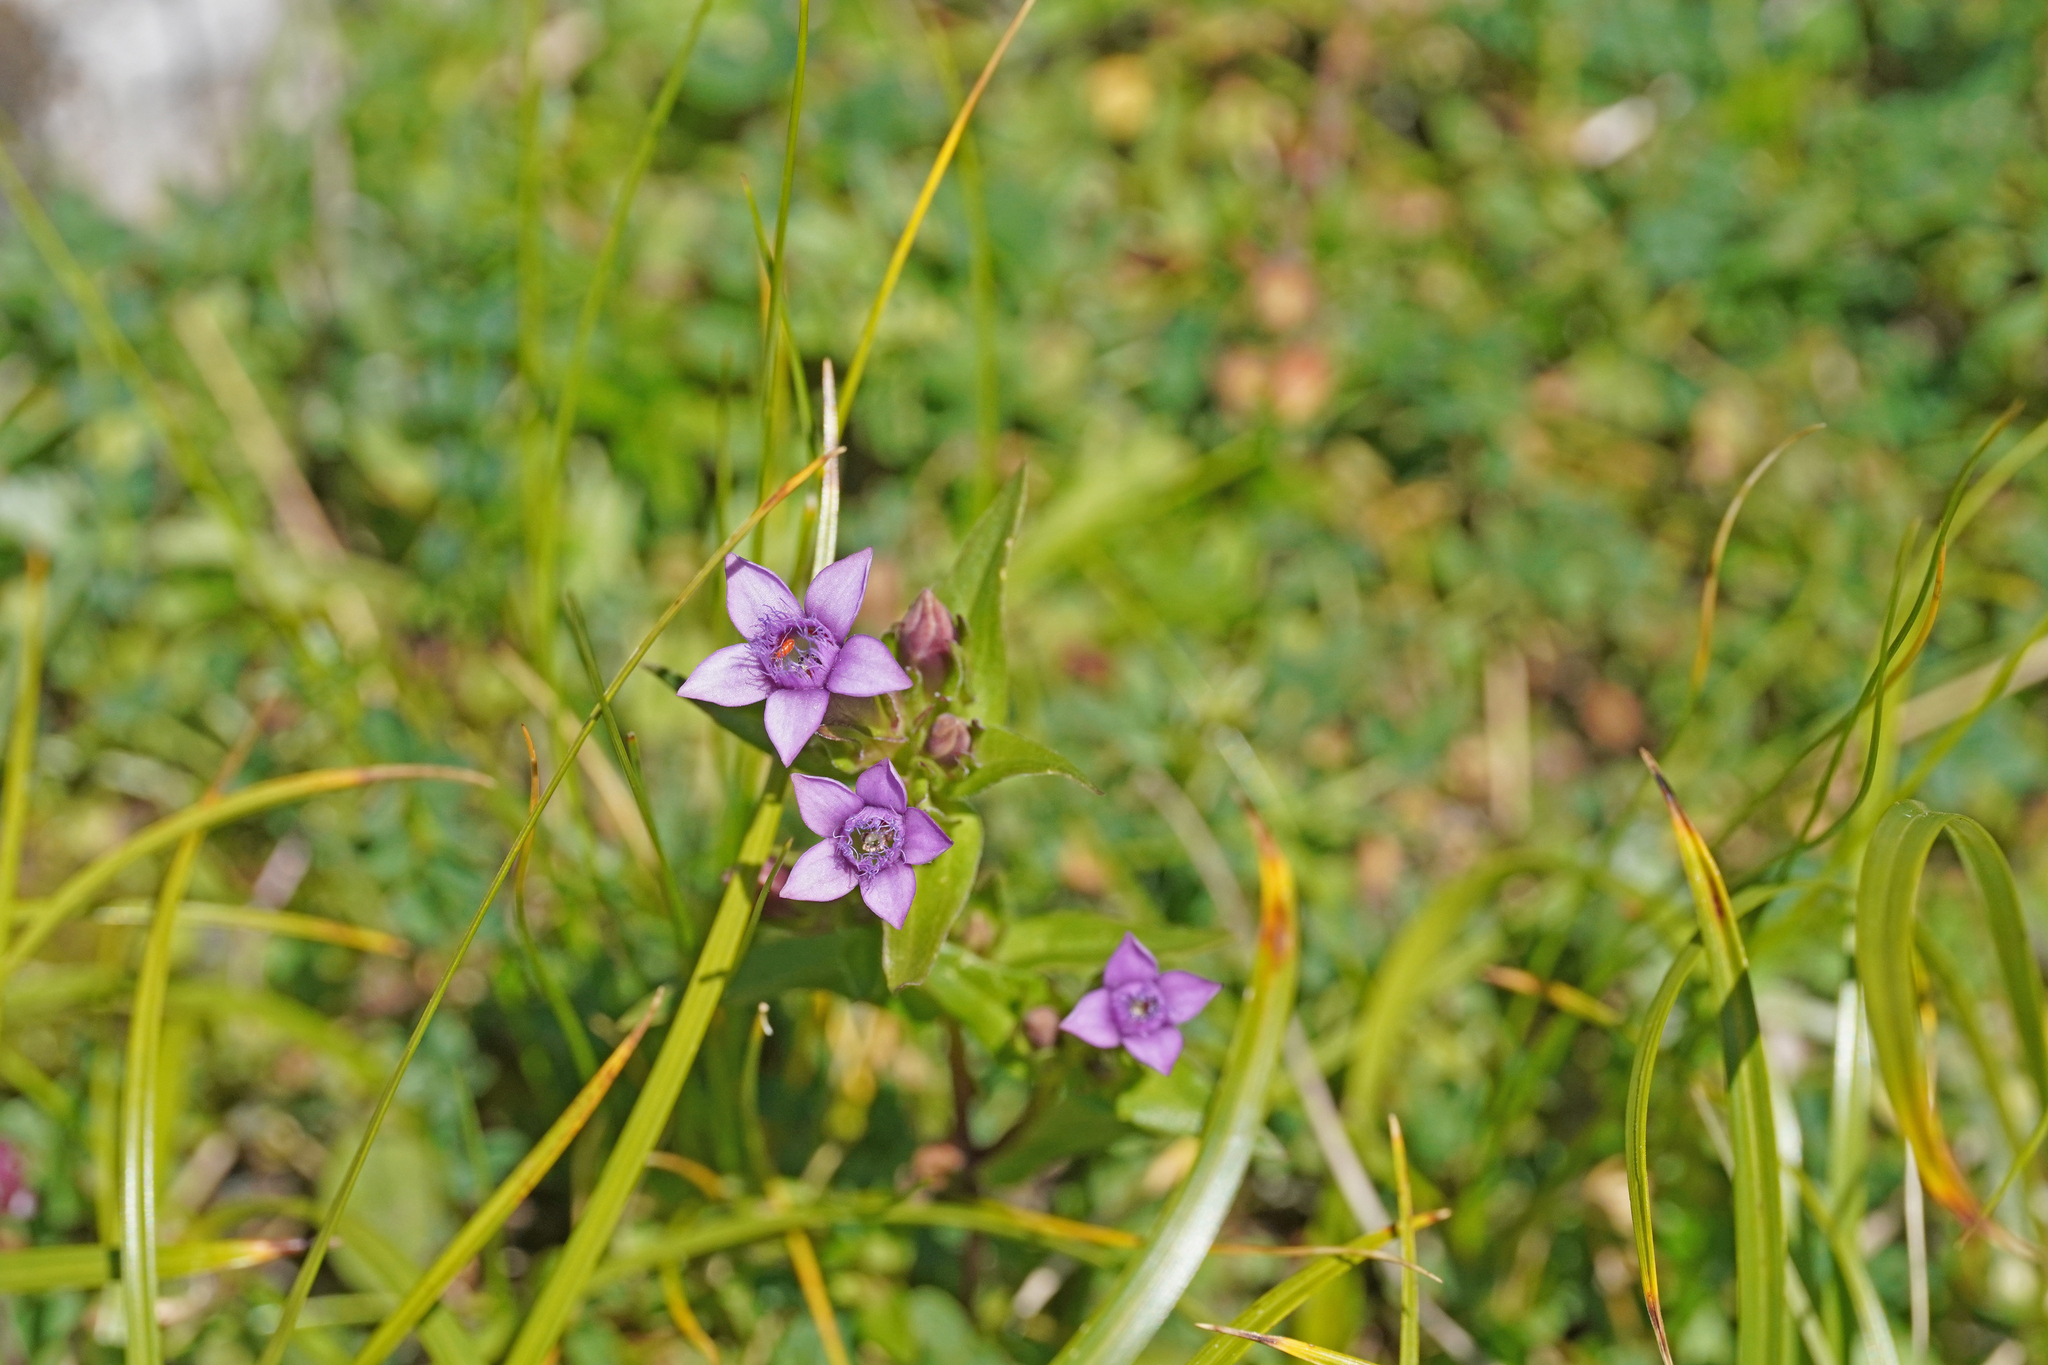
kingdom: Plantae
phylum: Tracheophyta
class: Magnoliopsida
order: Gentianales
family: Gentianaceae
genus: Gentianella
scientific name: Gentianella anisodonta
